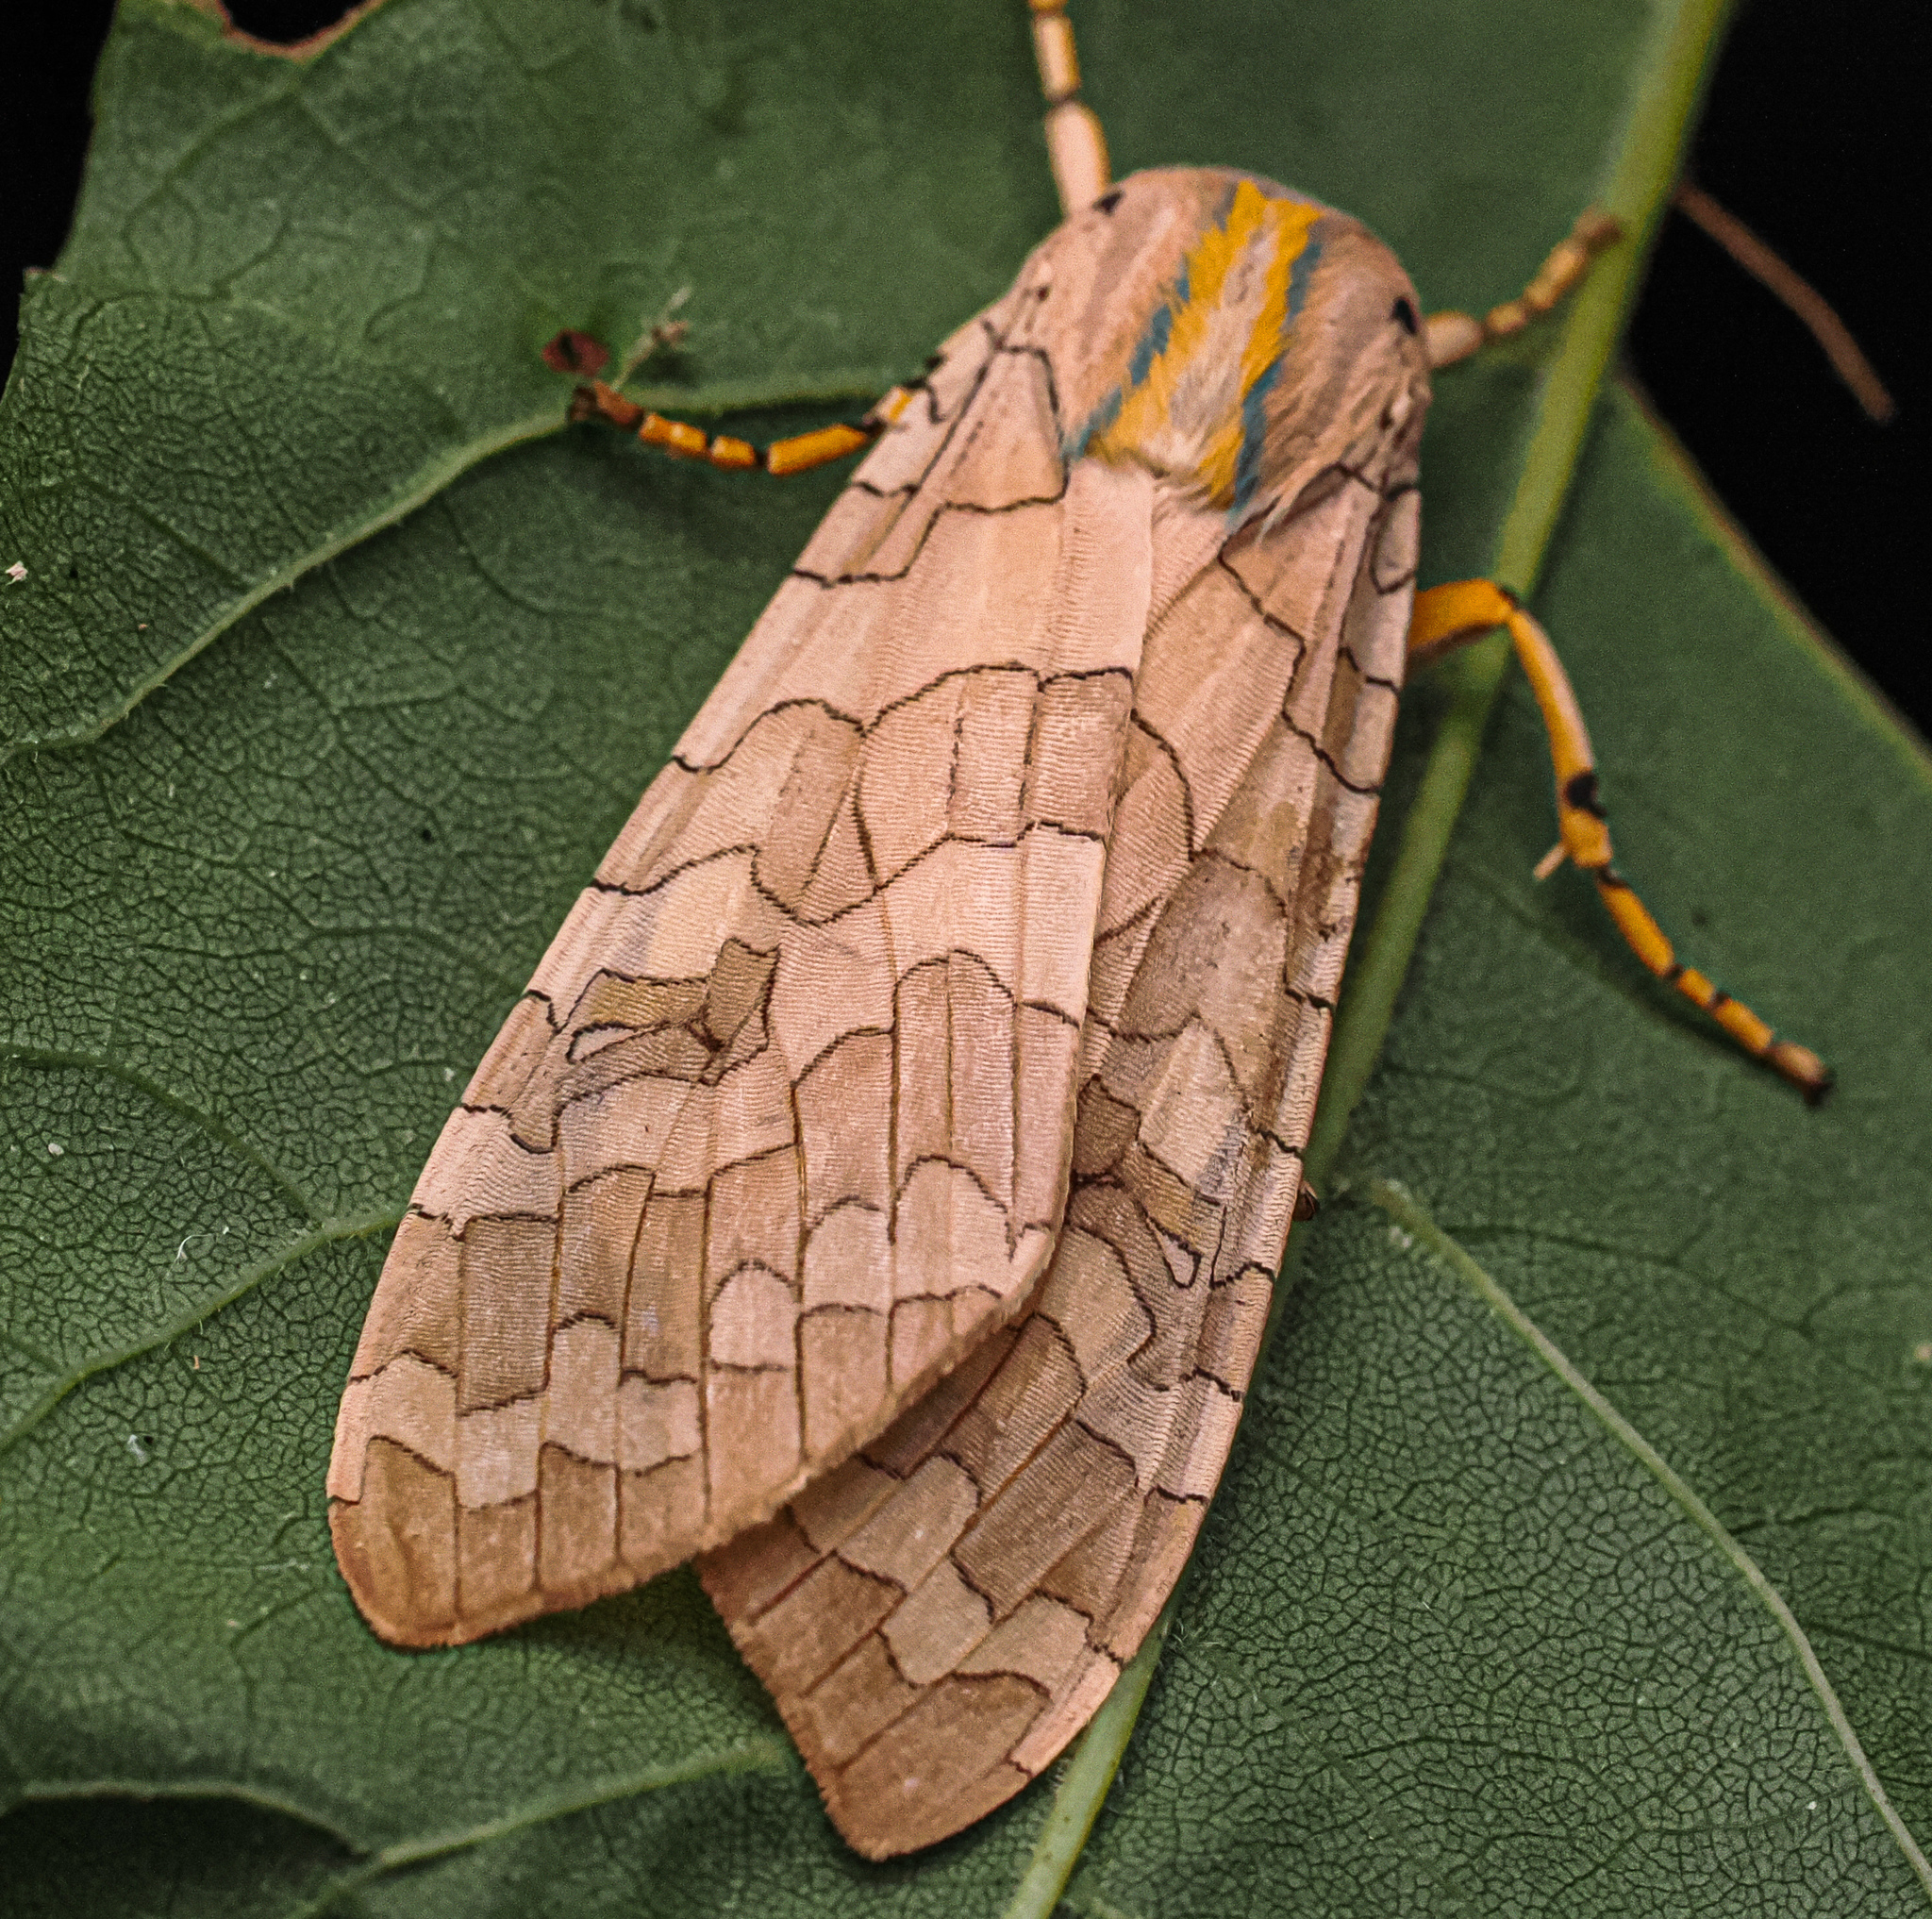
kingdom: Animalia
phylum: Arthropoda
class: Insecta
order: Lepidoptera
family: Erebidae
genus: Halysidota
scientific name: Halysidota
